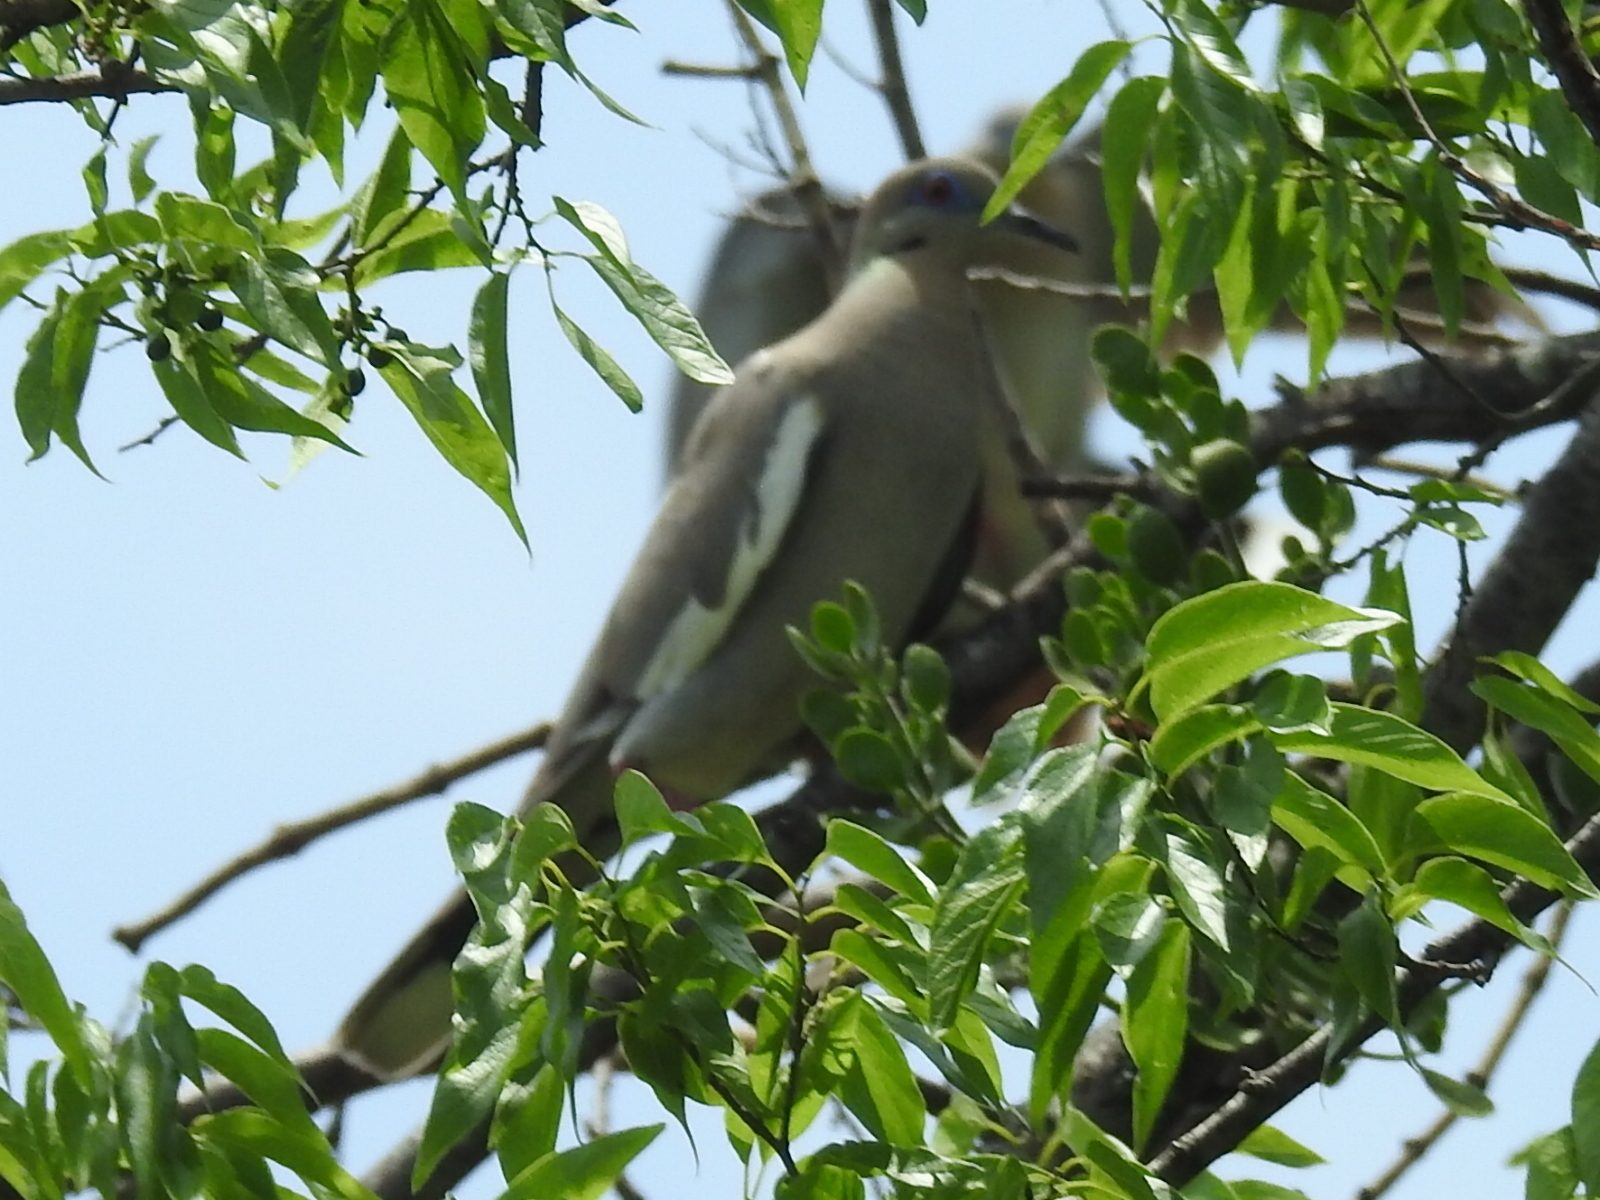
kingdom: Animalia
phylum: Chordata
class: Aves
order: Columbiformes
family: Columbidae
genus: Zenaida
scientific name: Zenaida asiatica
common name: White-winged dove
